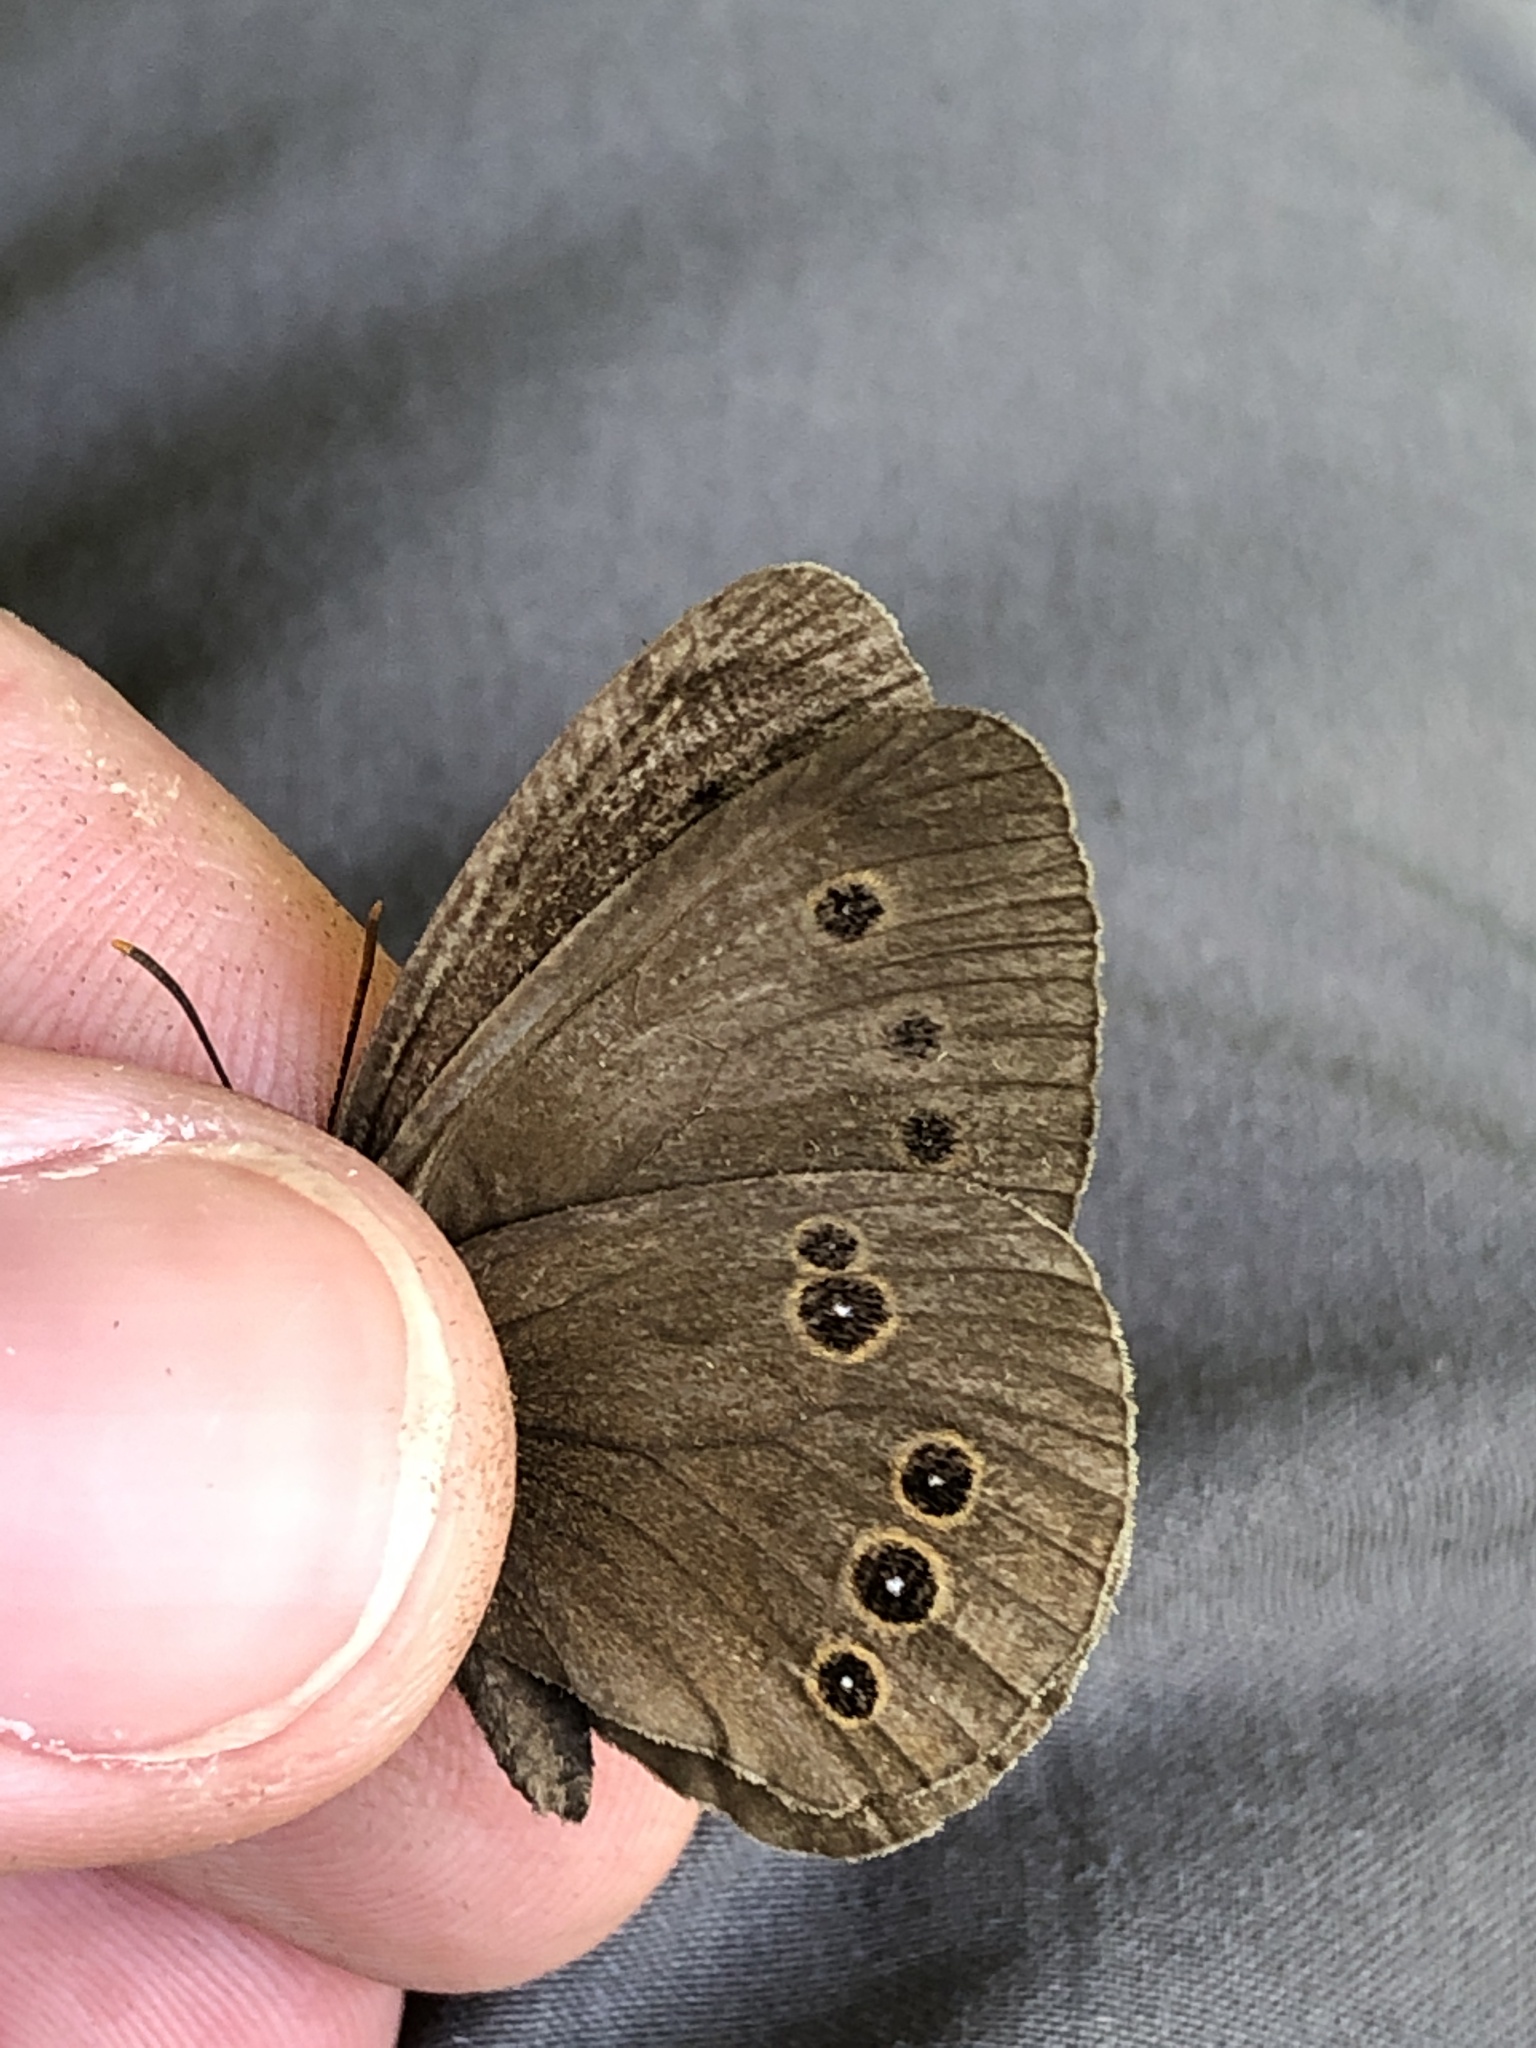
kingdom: Animalia
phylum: Arthropoda
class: Insecta
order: Lepidoptera
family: Nymphalidae
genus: Aphantopus
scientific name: Aphantopus hyperantus
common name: Ringlet
